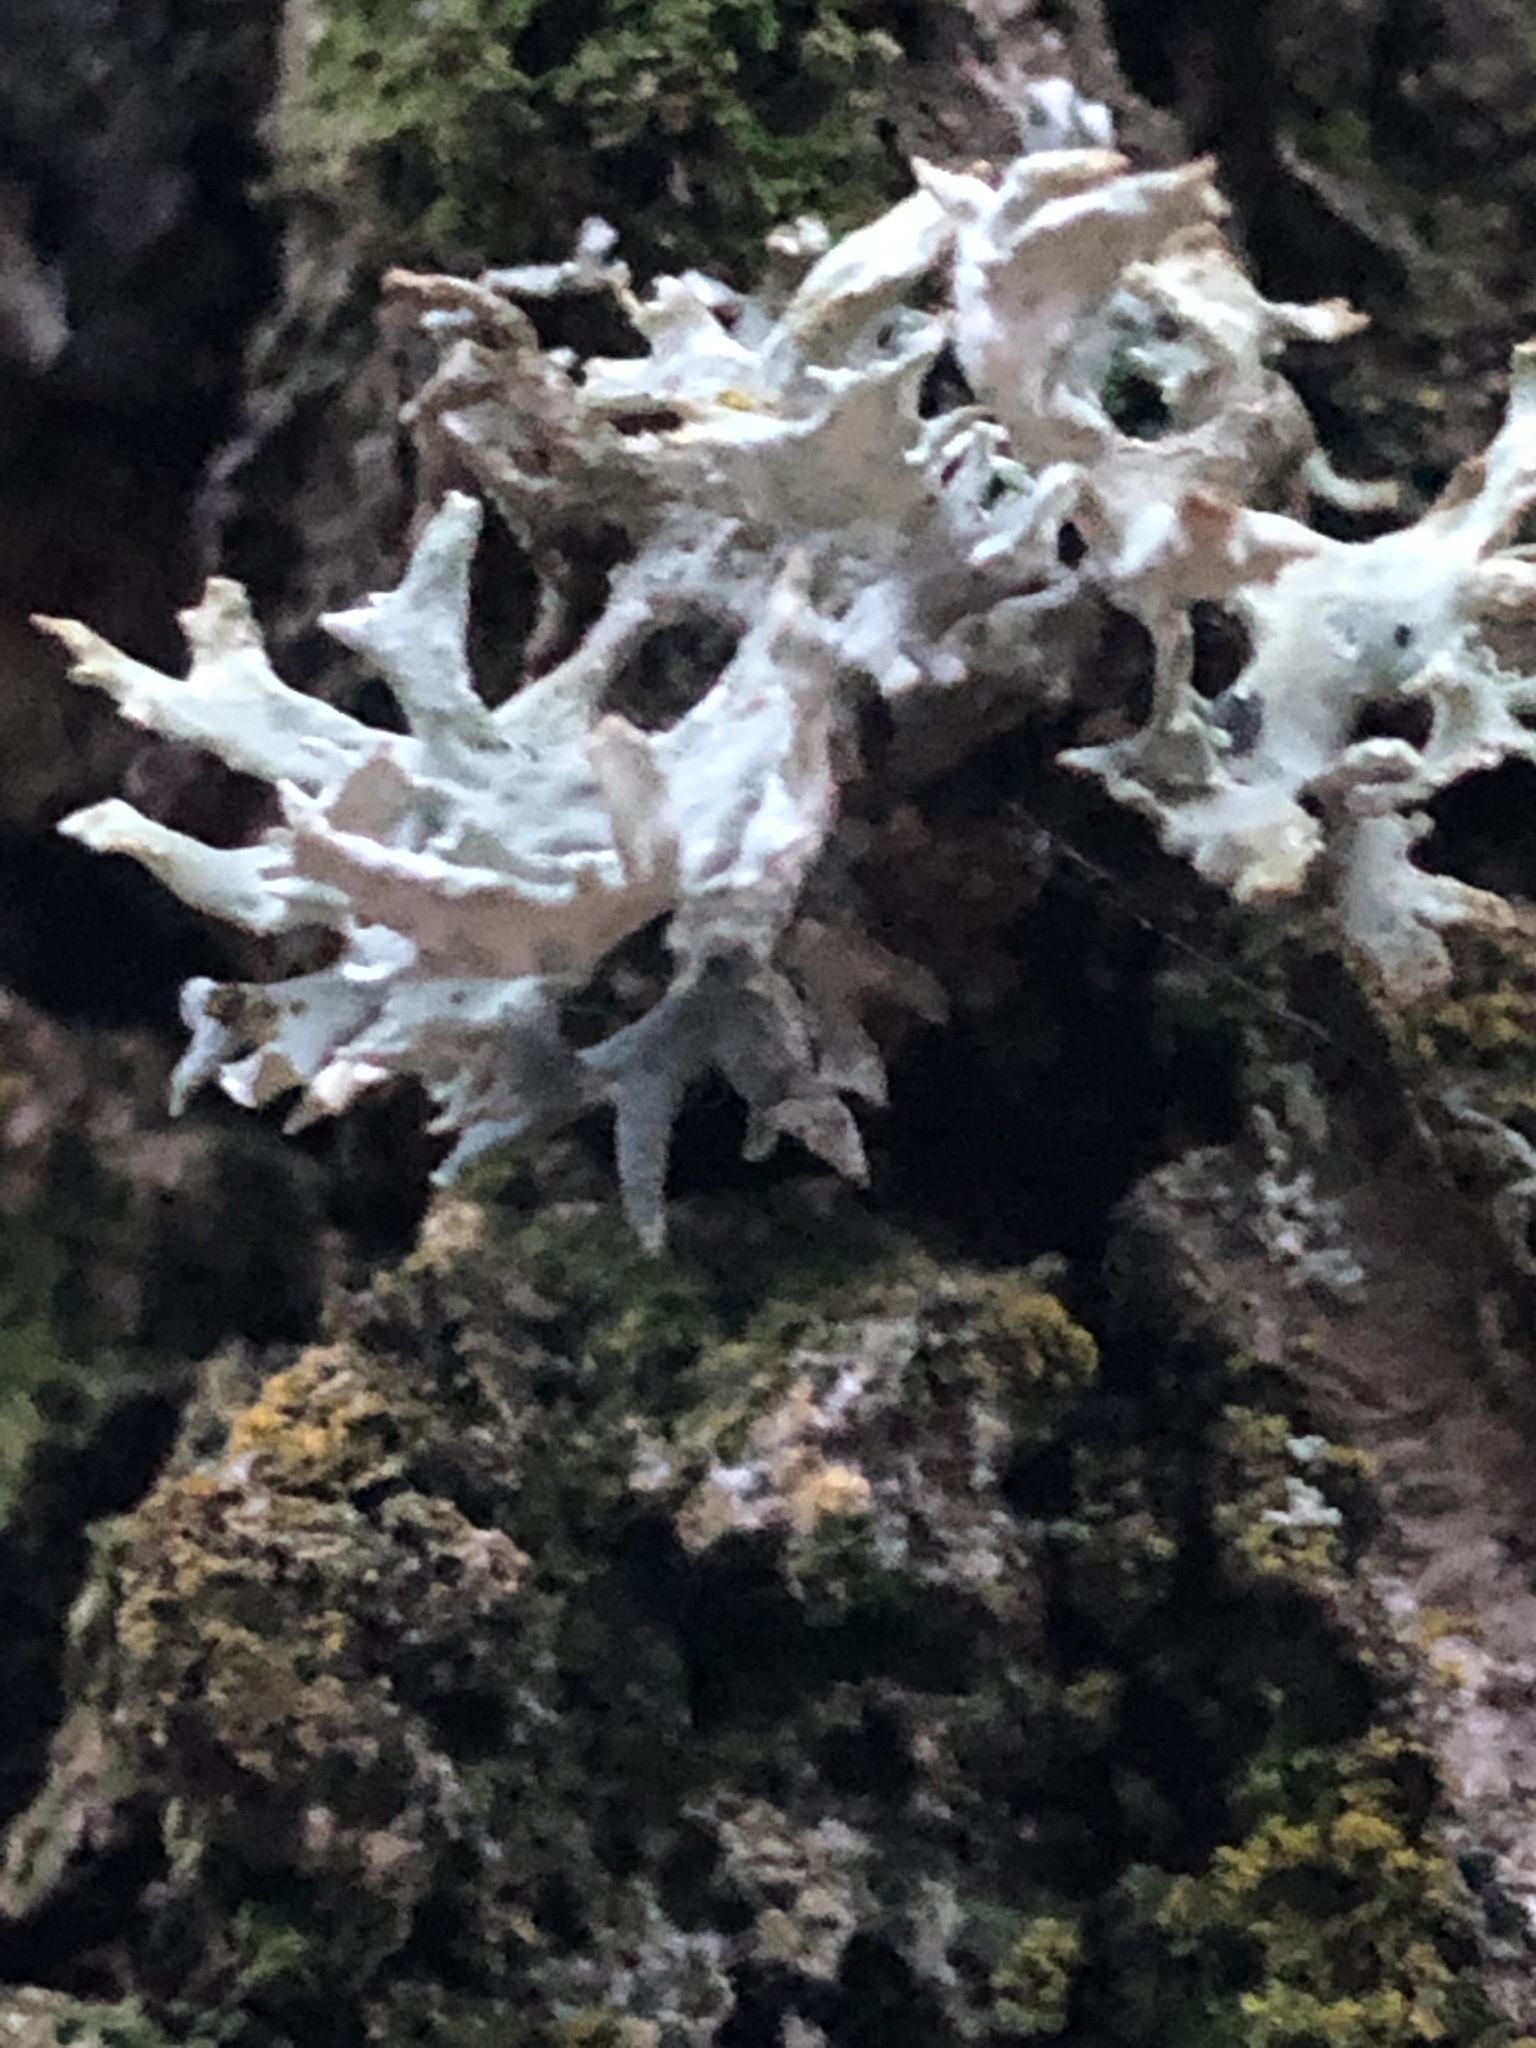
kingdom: Fungi
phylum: Ascomycota
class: Lecanoromycetes
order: Lecanorales
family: Parmeliaceae
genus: Evernia
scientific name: Evernia prunastri
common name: Oak moss
